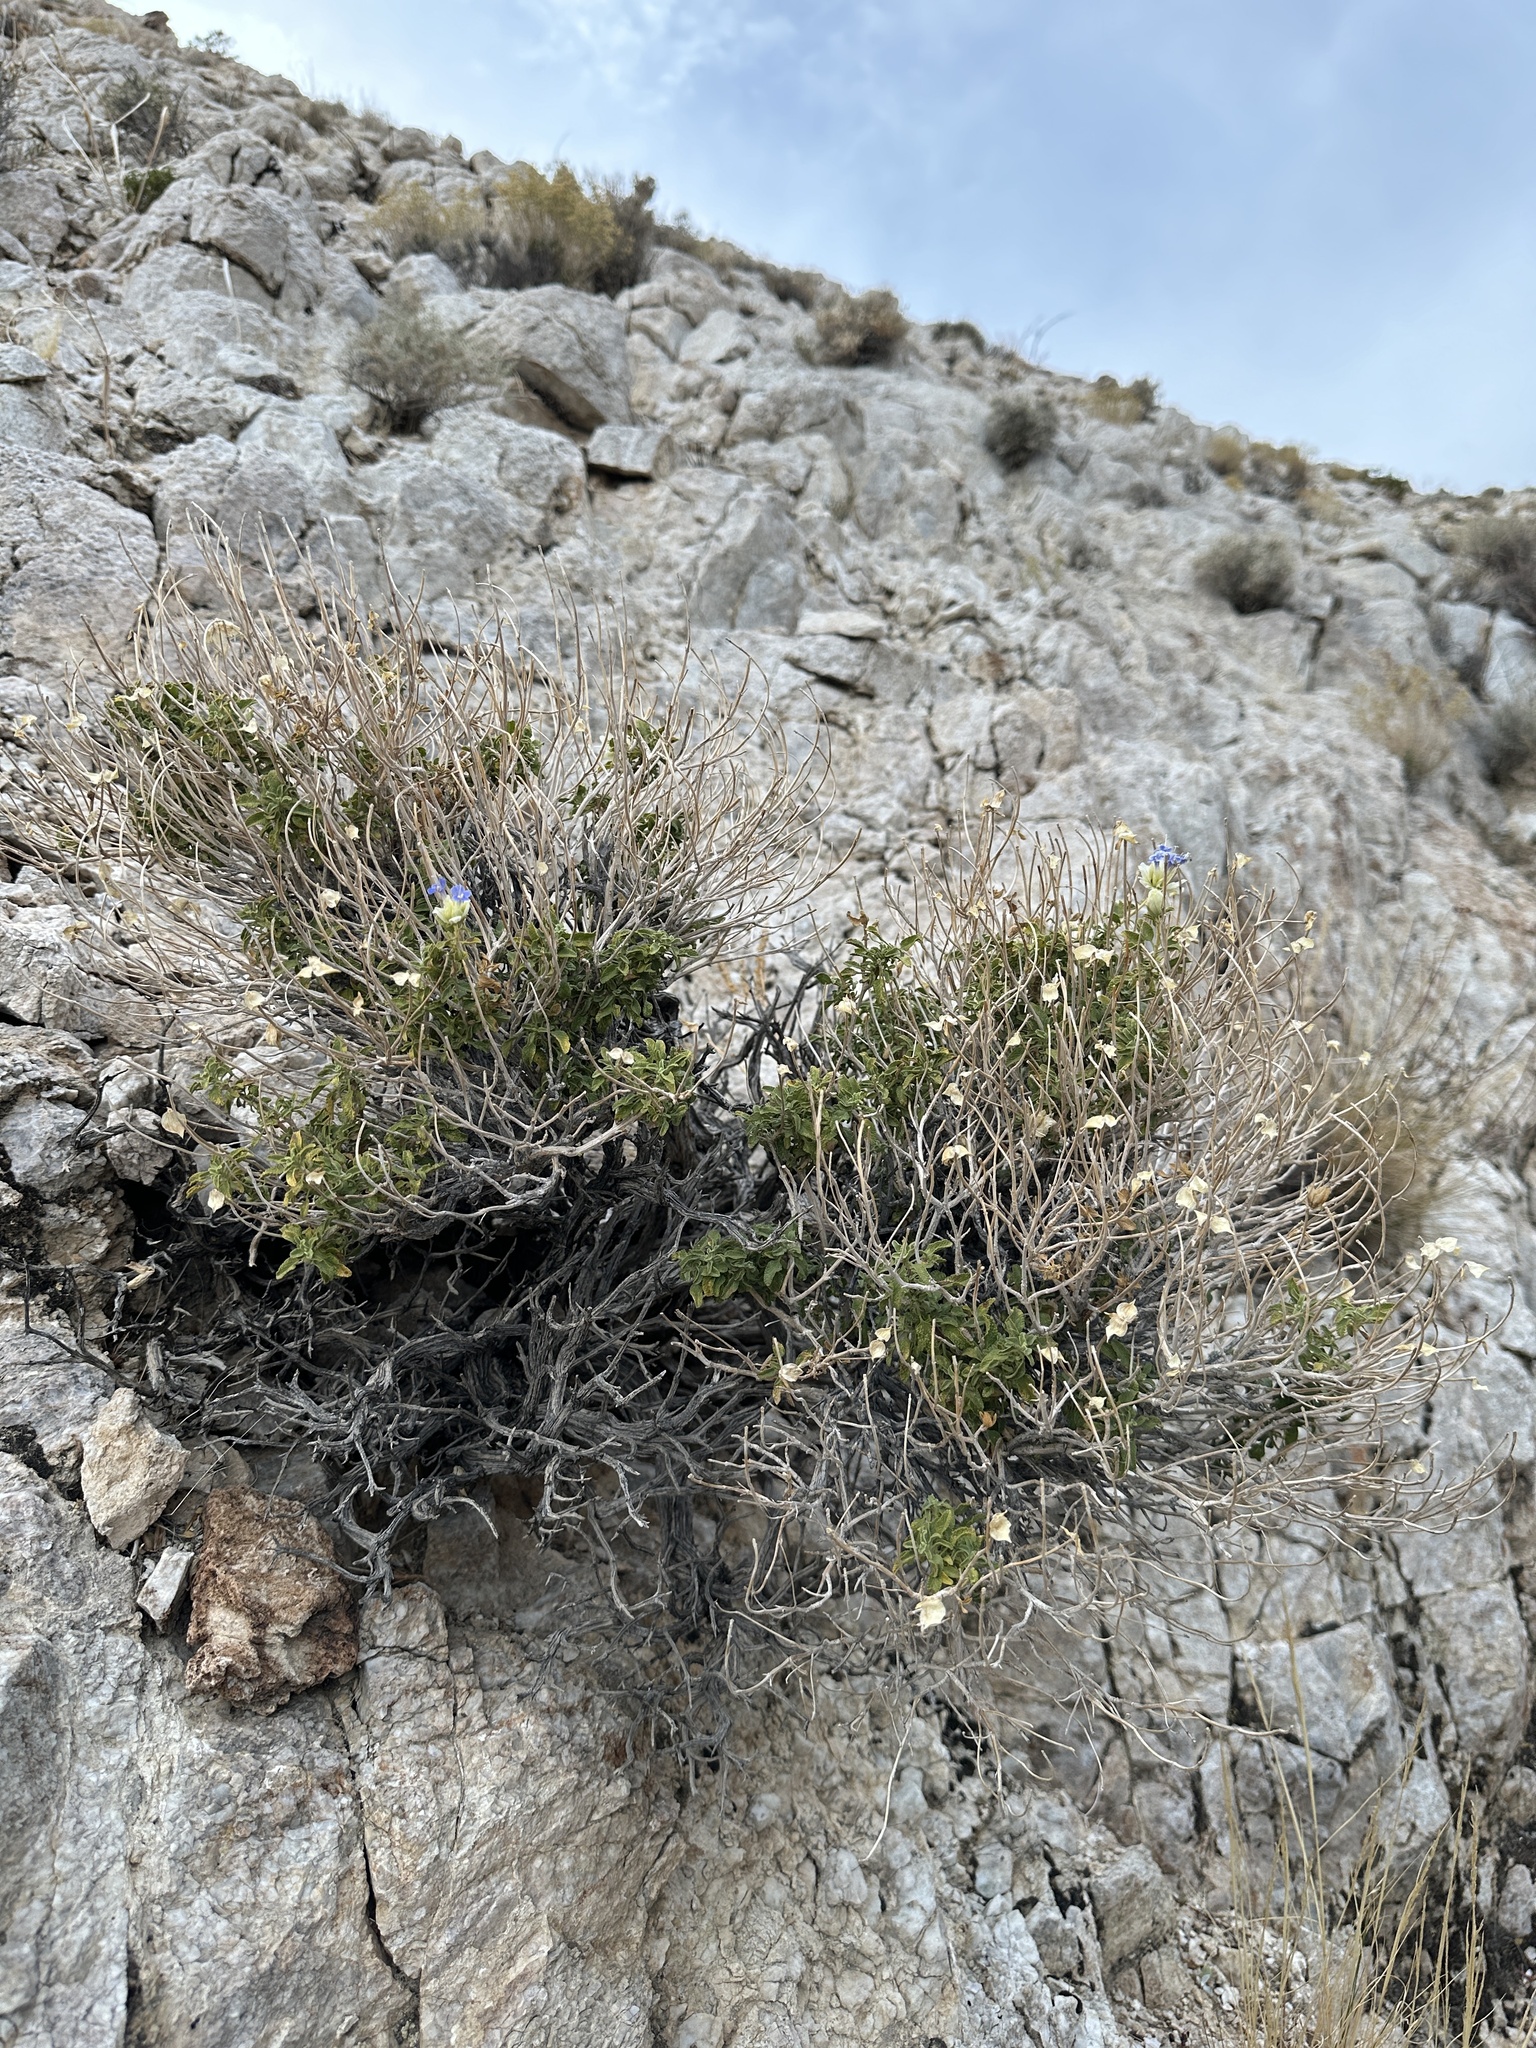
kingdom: Plantae
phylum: Tracheophyta
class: Magnoliopsida
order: Lamiales
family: Lamiaceae
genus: Salvia
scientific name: Salvia mohavensis
